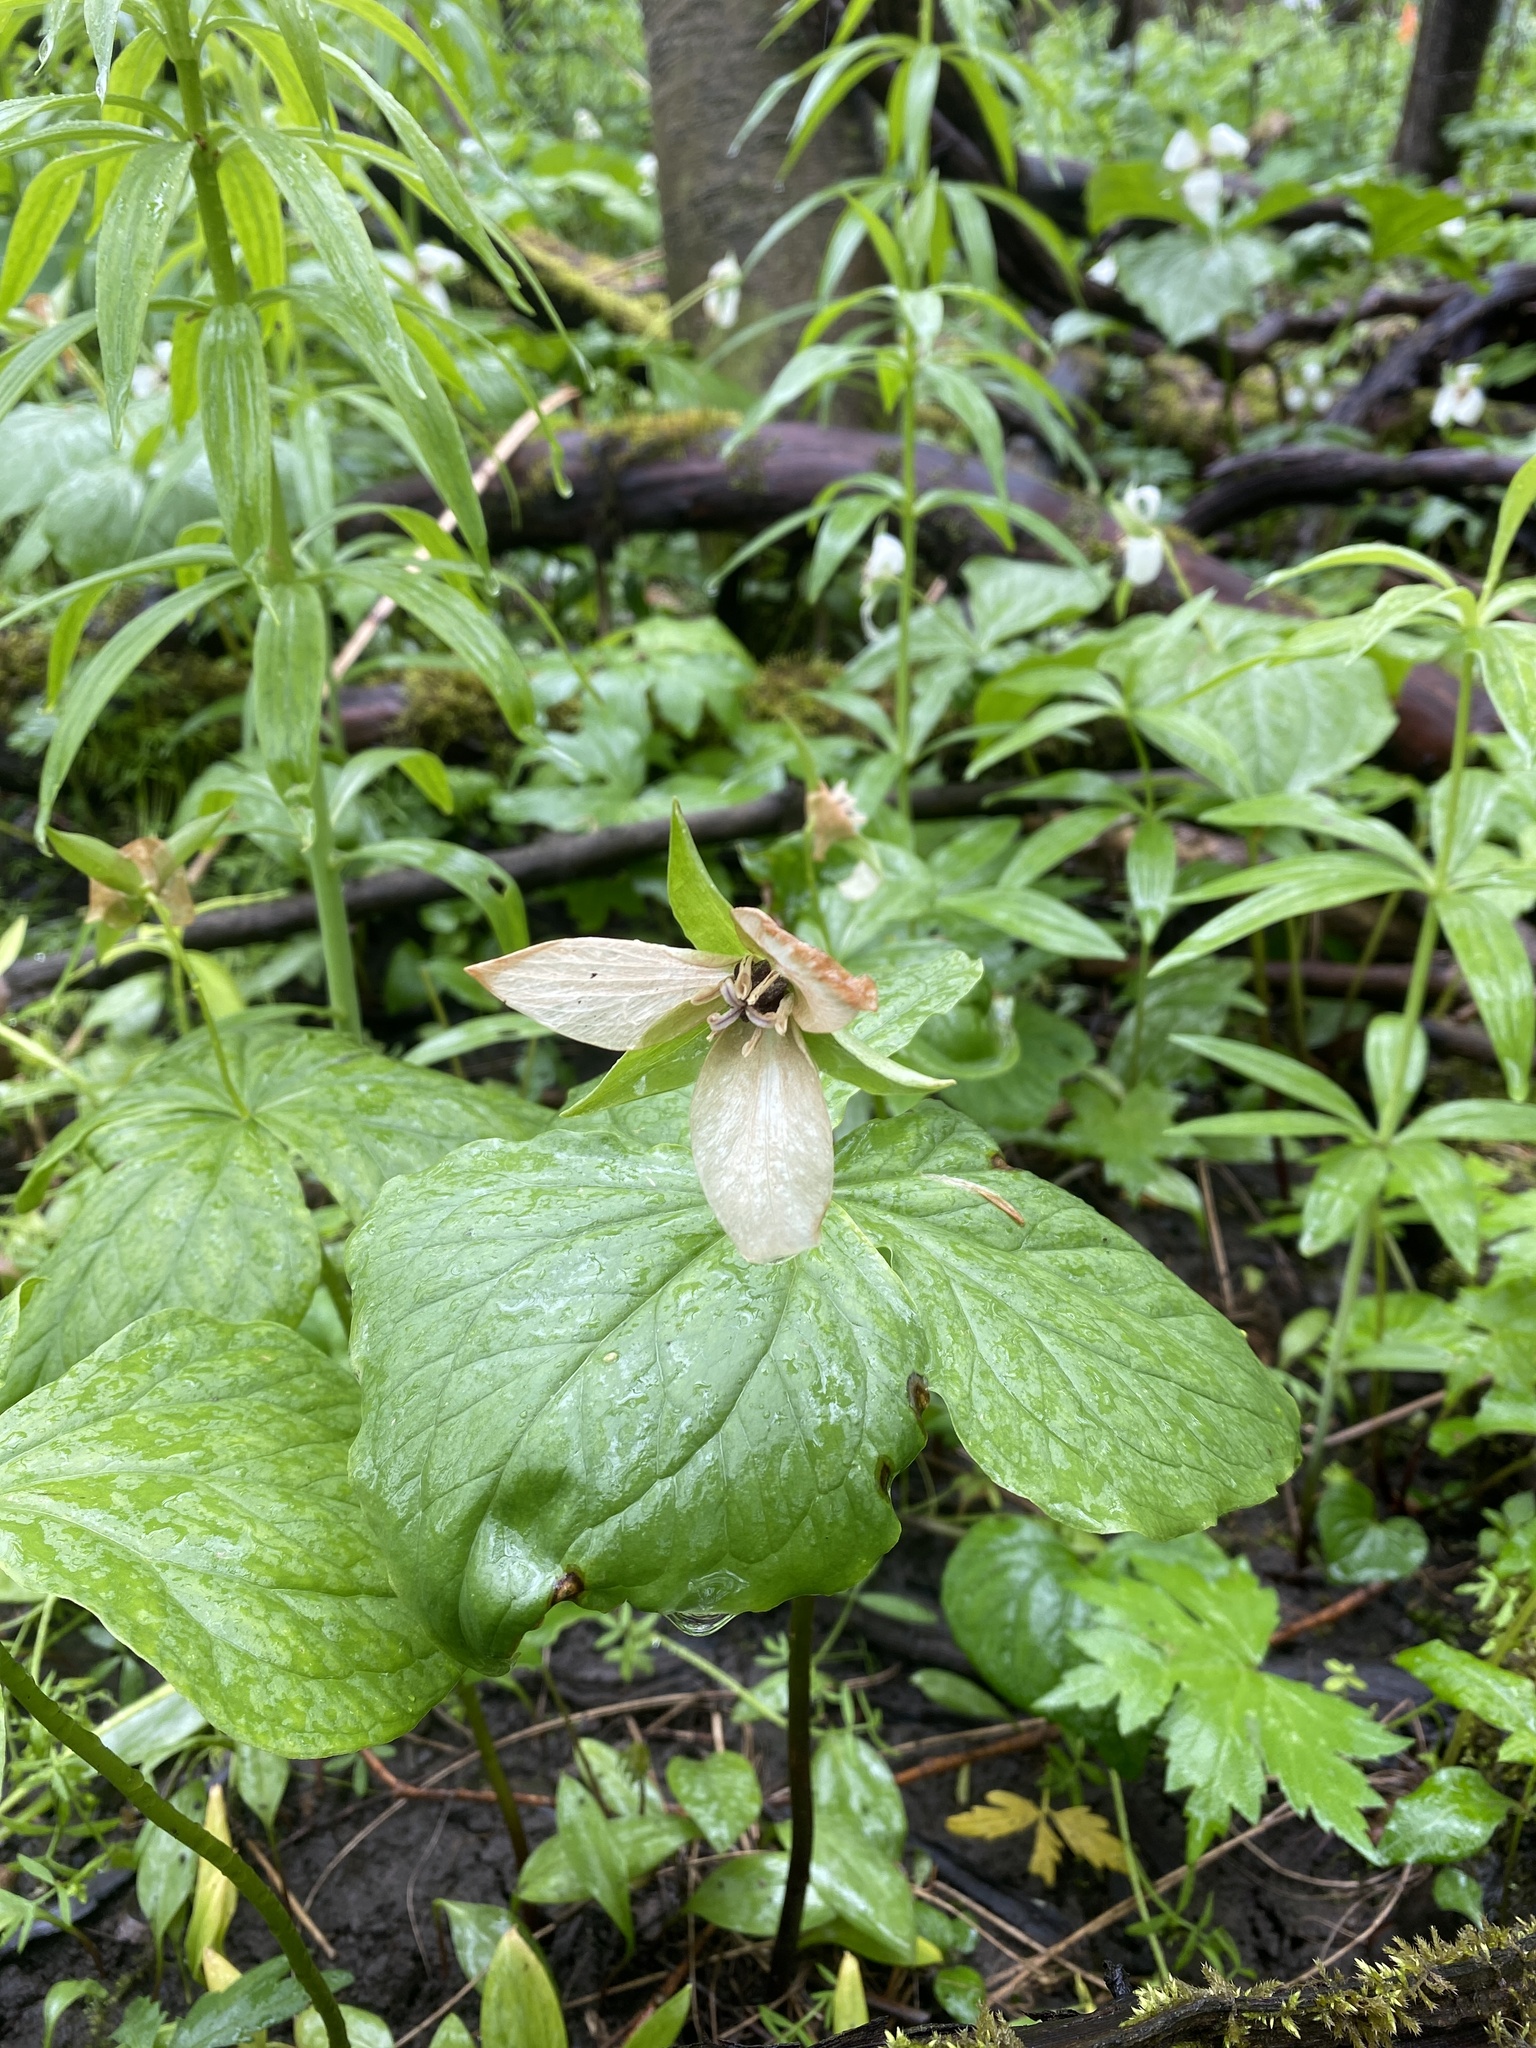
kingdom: Plantae
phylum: Tracheophyta
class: Liliopsida
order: Liliales
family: Melanthiaceae
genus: Trillium
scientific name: Trillium erectum
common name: Purple trillium
